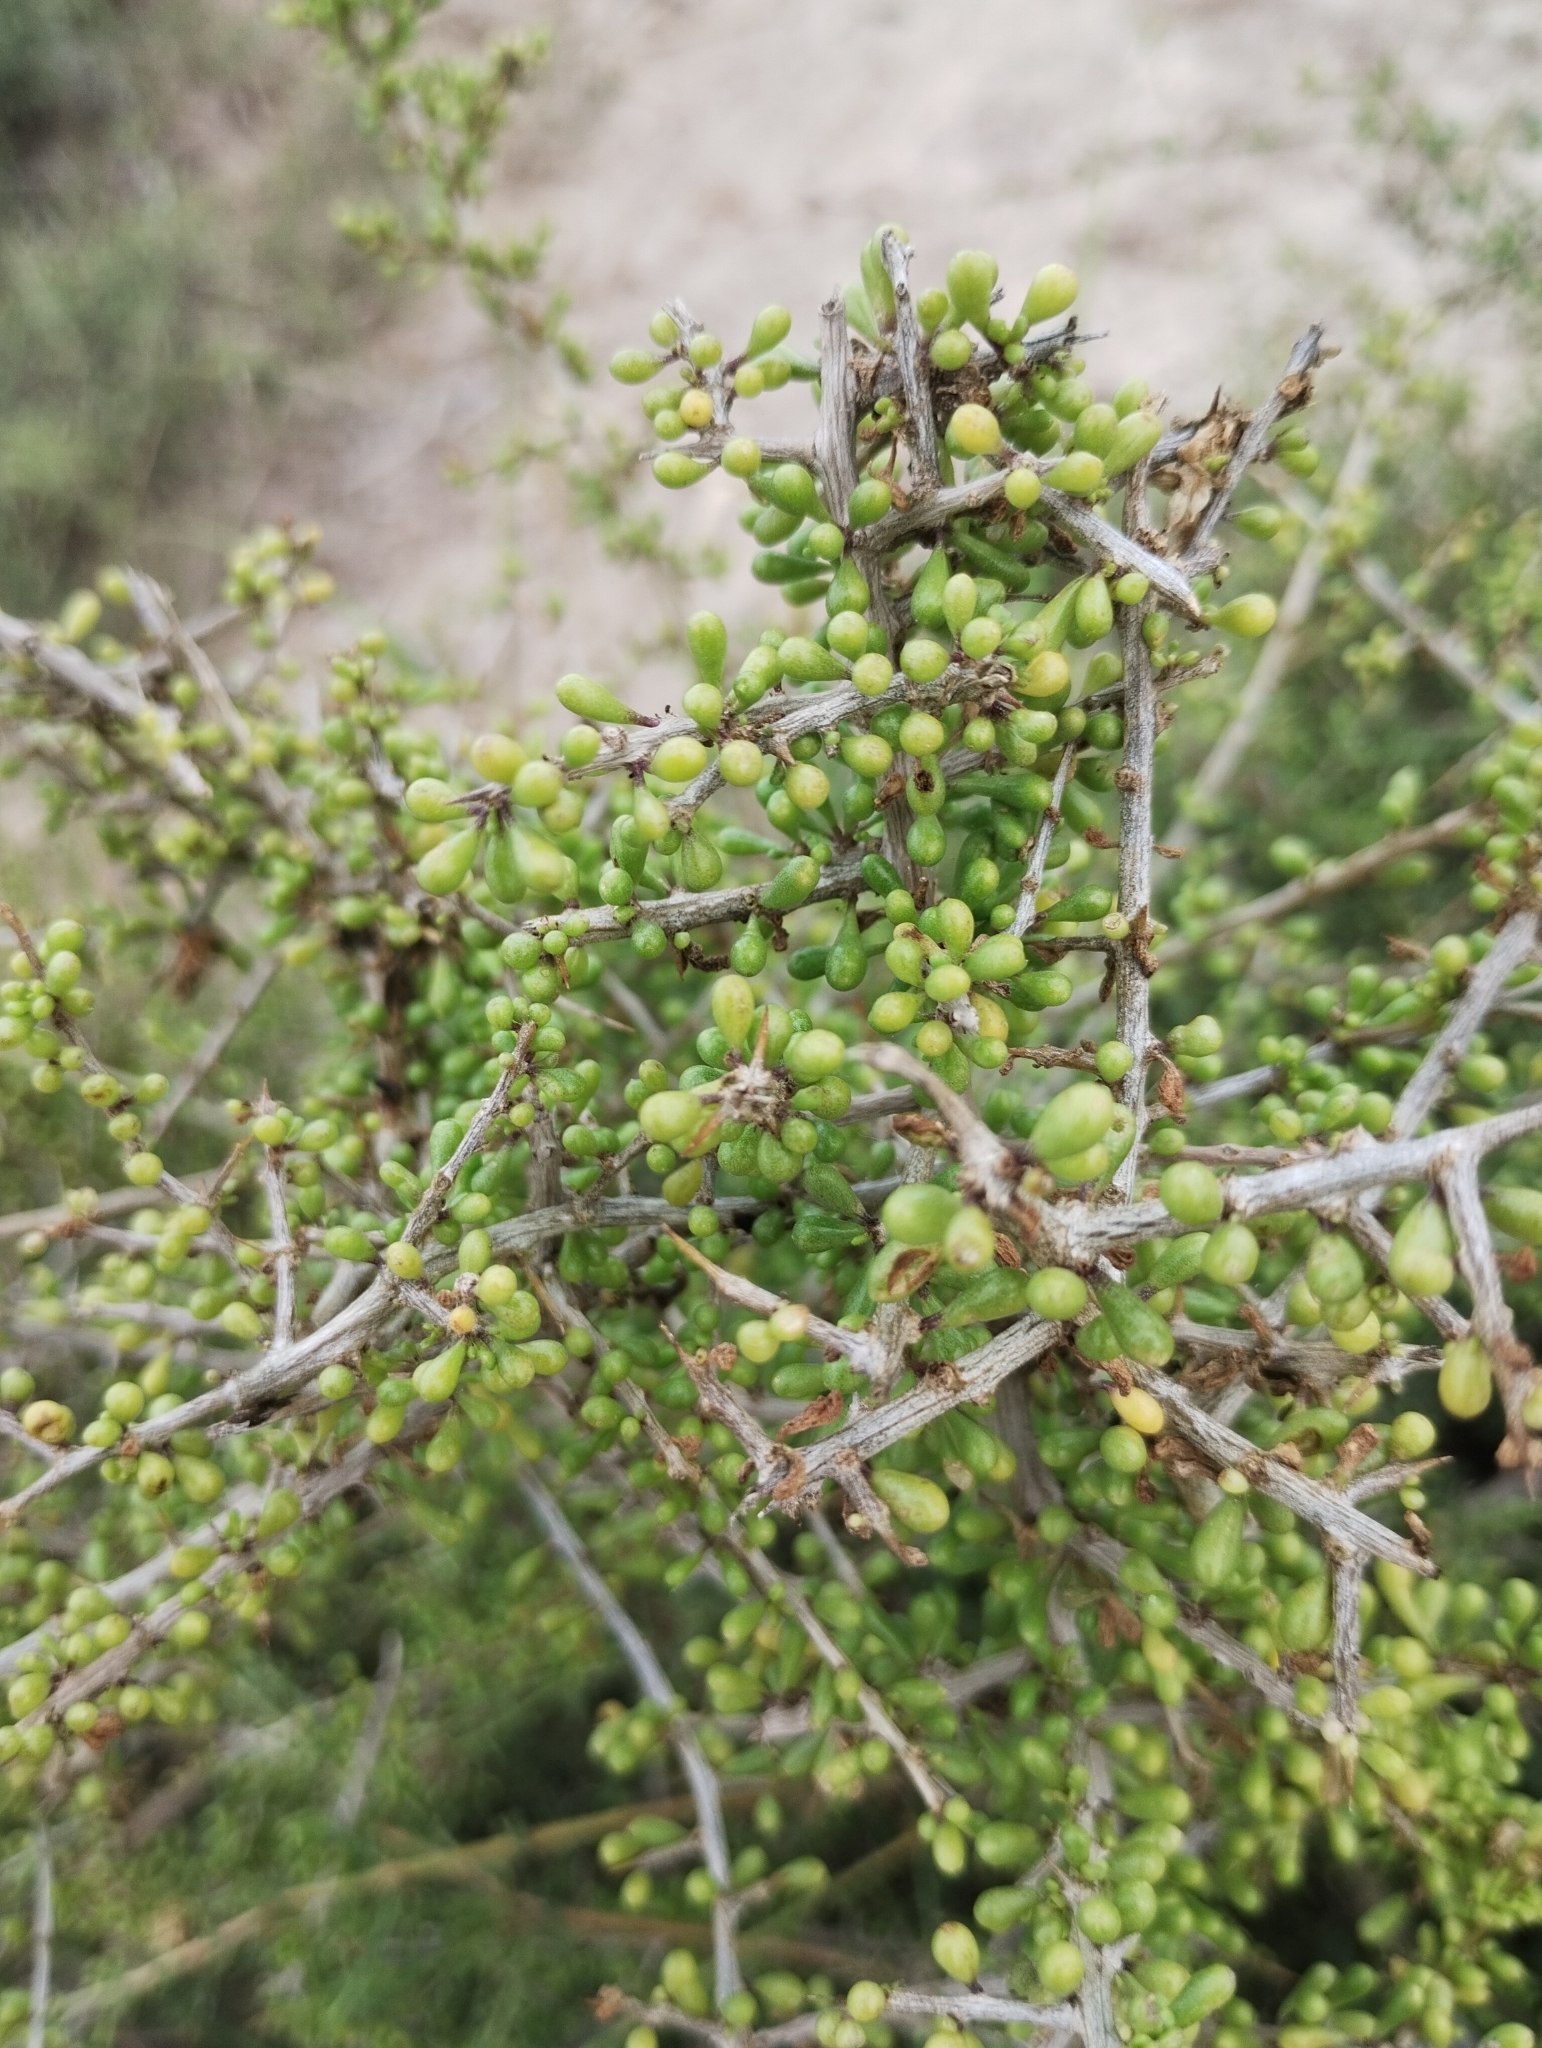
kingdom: Plantae
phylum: Tracheophyta
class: Magnoliopsida
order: Caryophyllales
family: Anacampserotaceae
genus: Grahamia
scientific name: Grahamia bracteata
